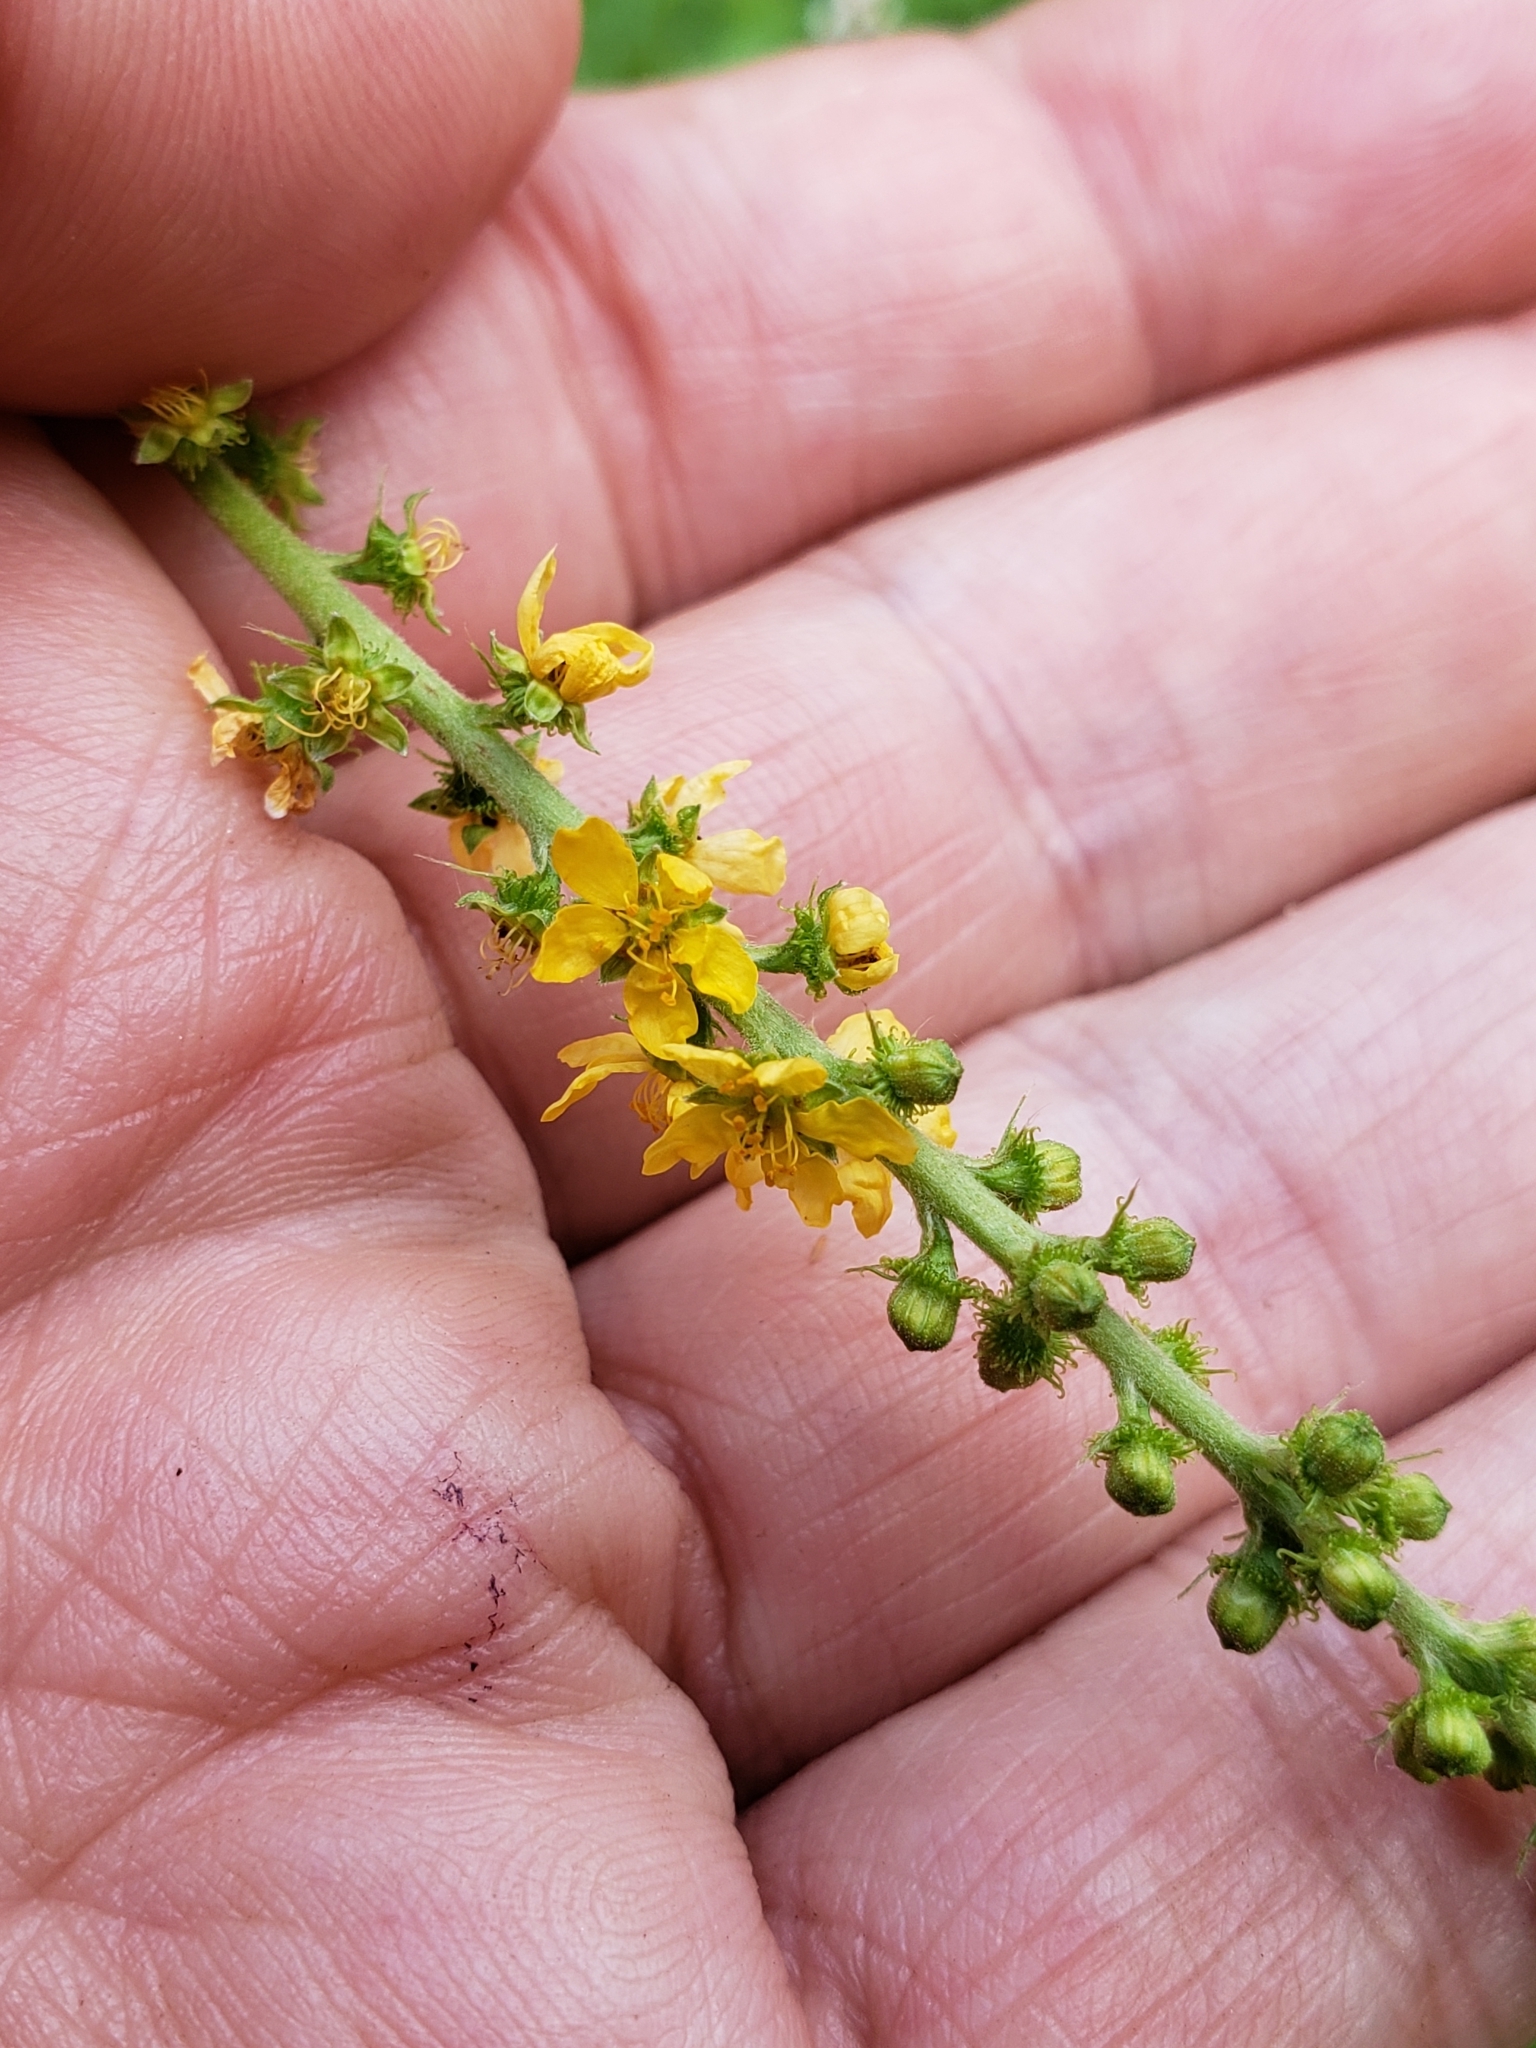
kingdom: Plantae
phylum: Tracheophyta
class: Magnoliopsida
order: Rosales
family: Rosaceae
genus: Agrimonia
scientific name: Agrimonia parviflora
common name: Harvest-lice
